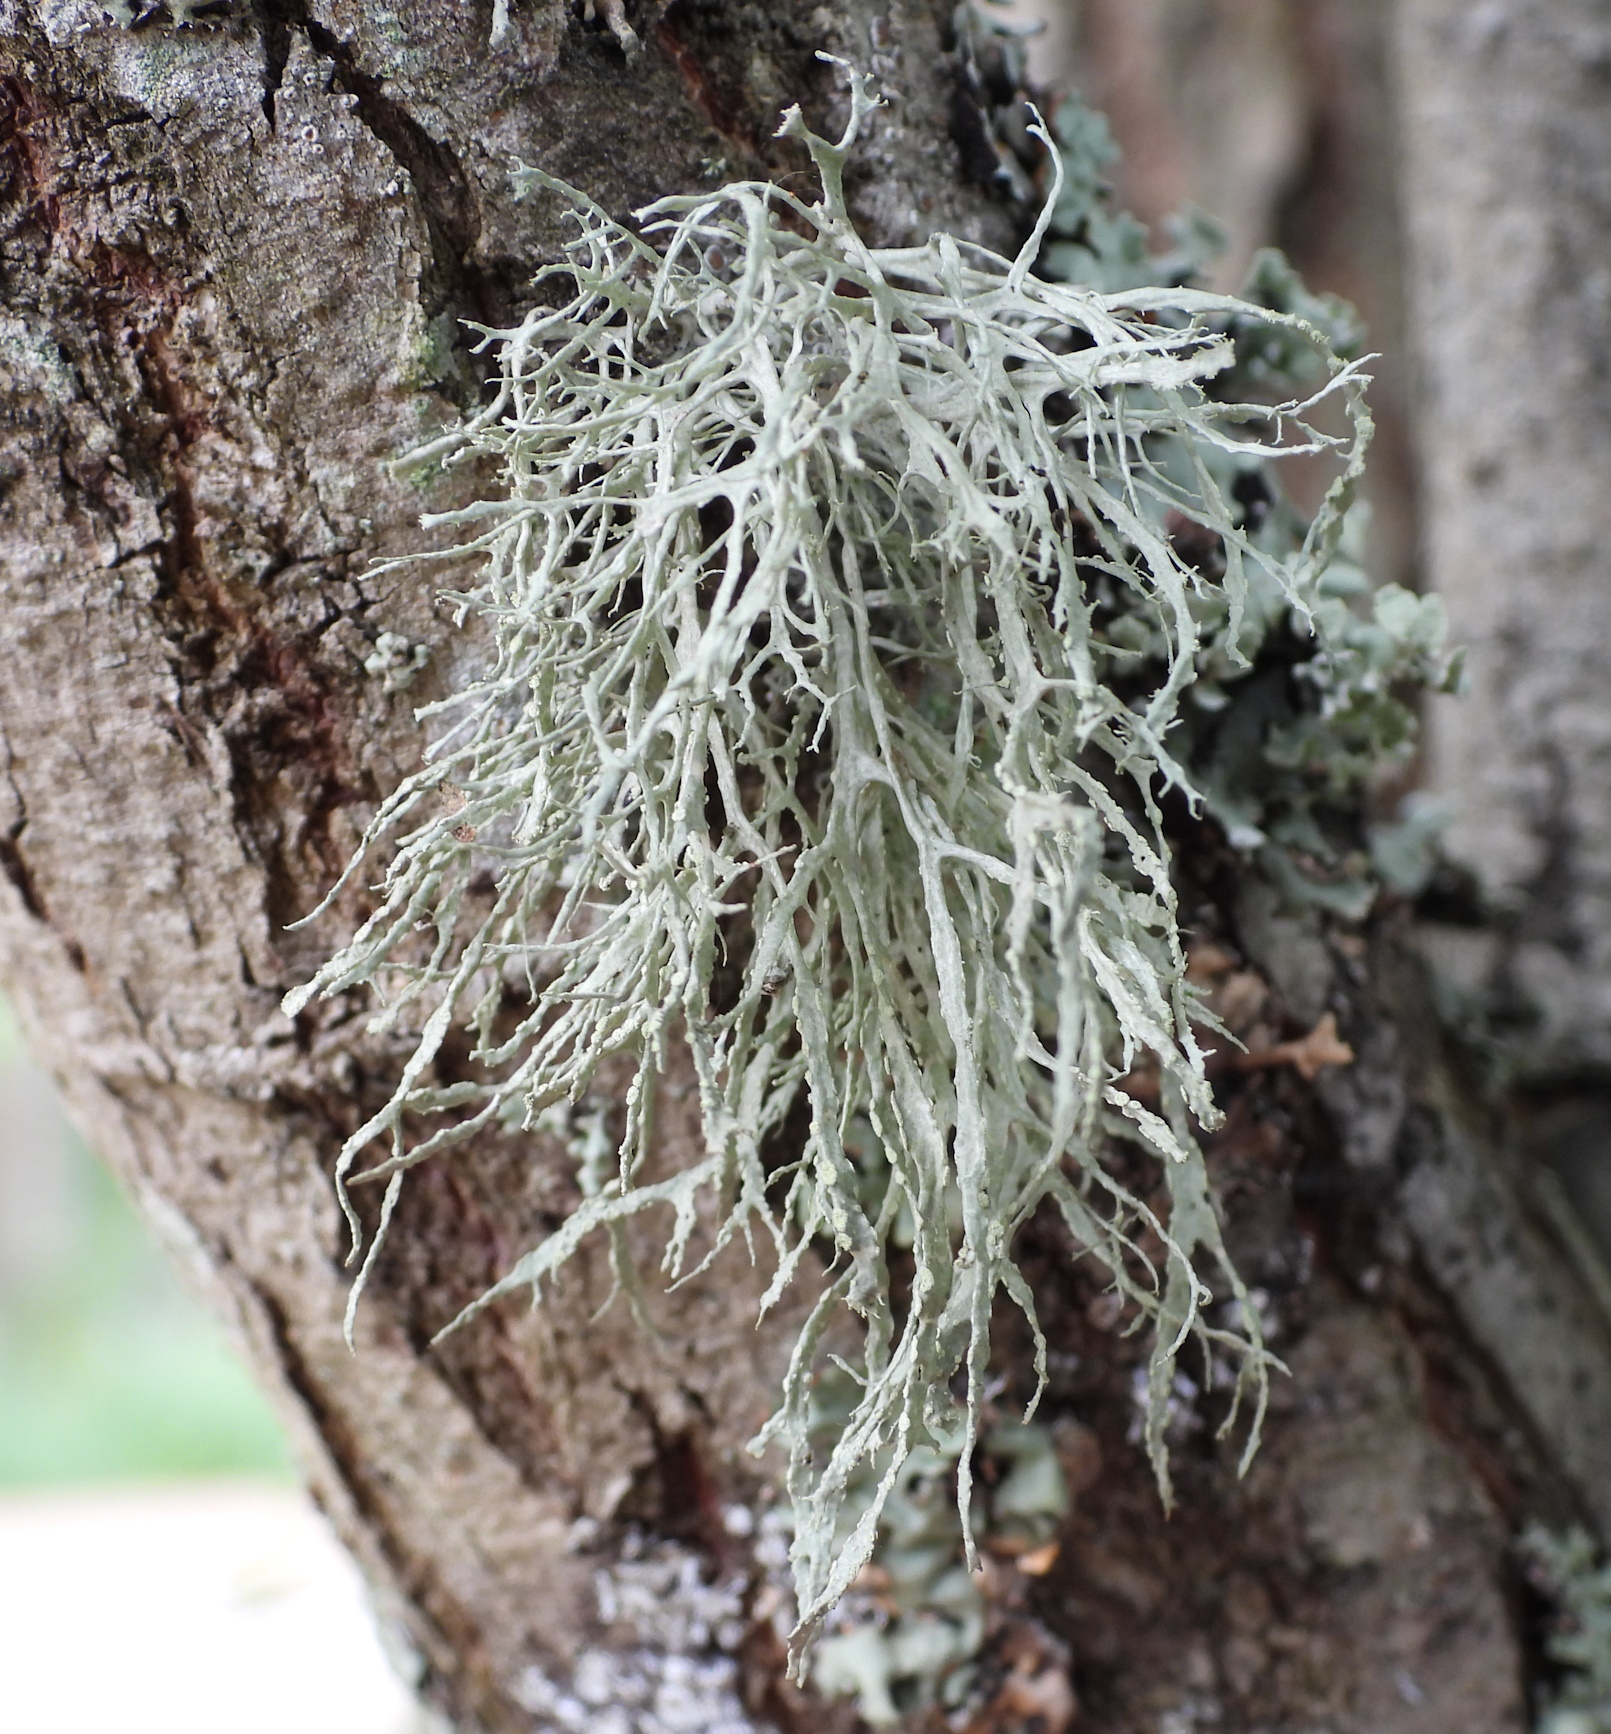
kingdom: Fungi
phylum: Ascomycota
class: Lecanoromycetes
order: Lecanorales
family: Ramalinaceae
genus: Ramalina
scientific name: Ramalina farinacea
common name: Farinose cartilage lichen
